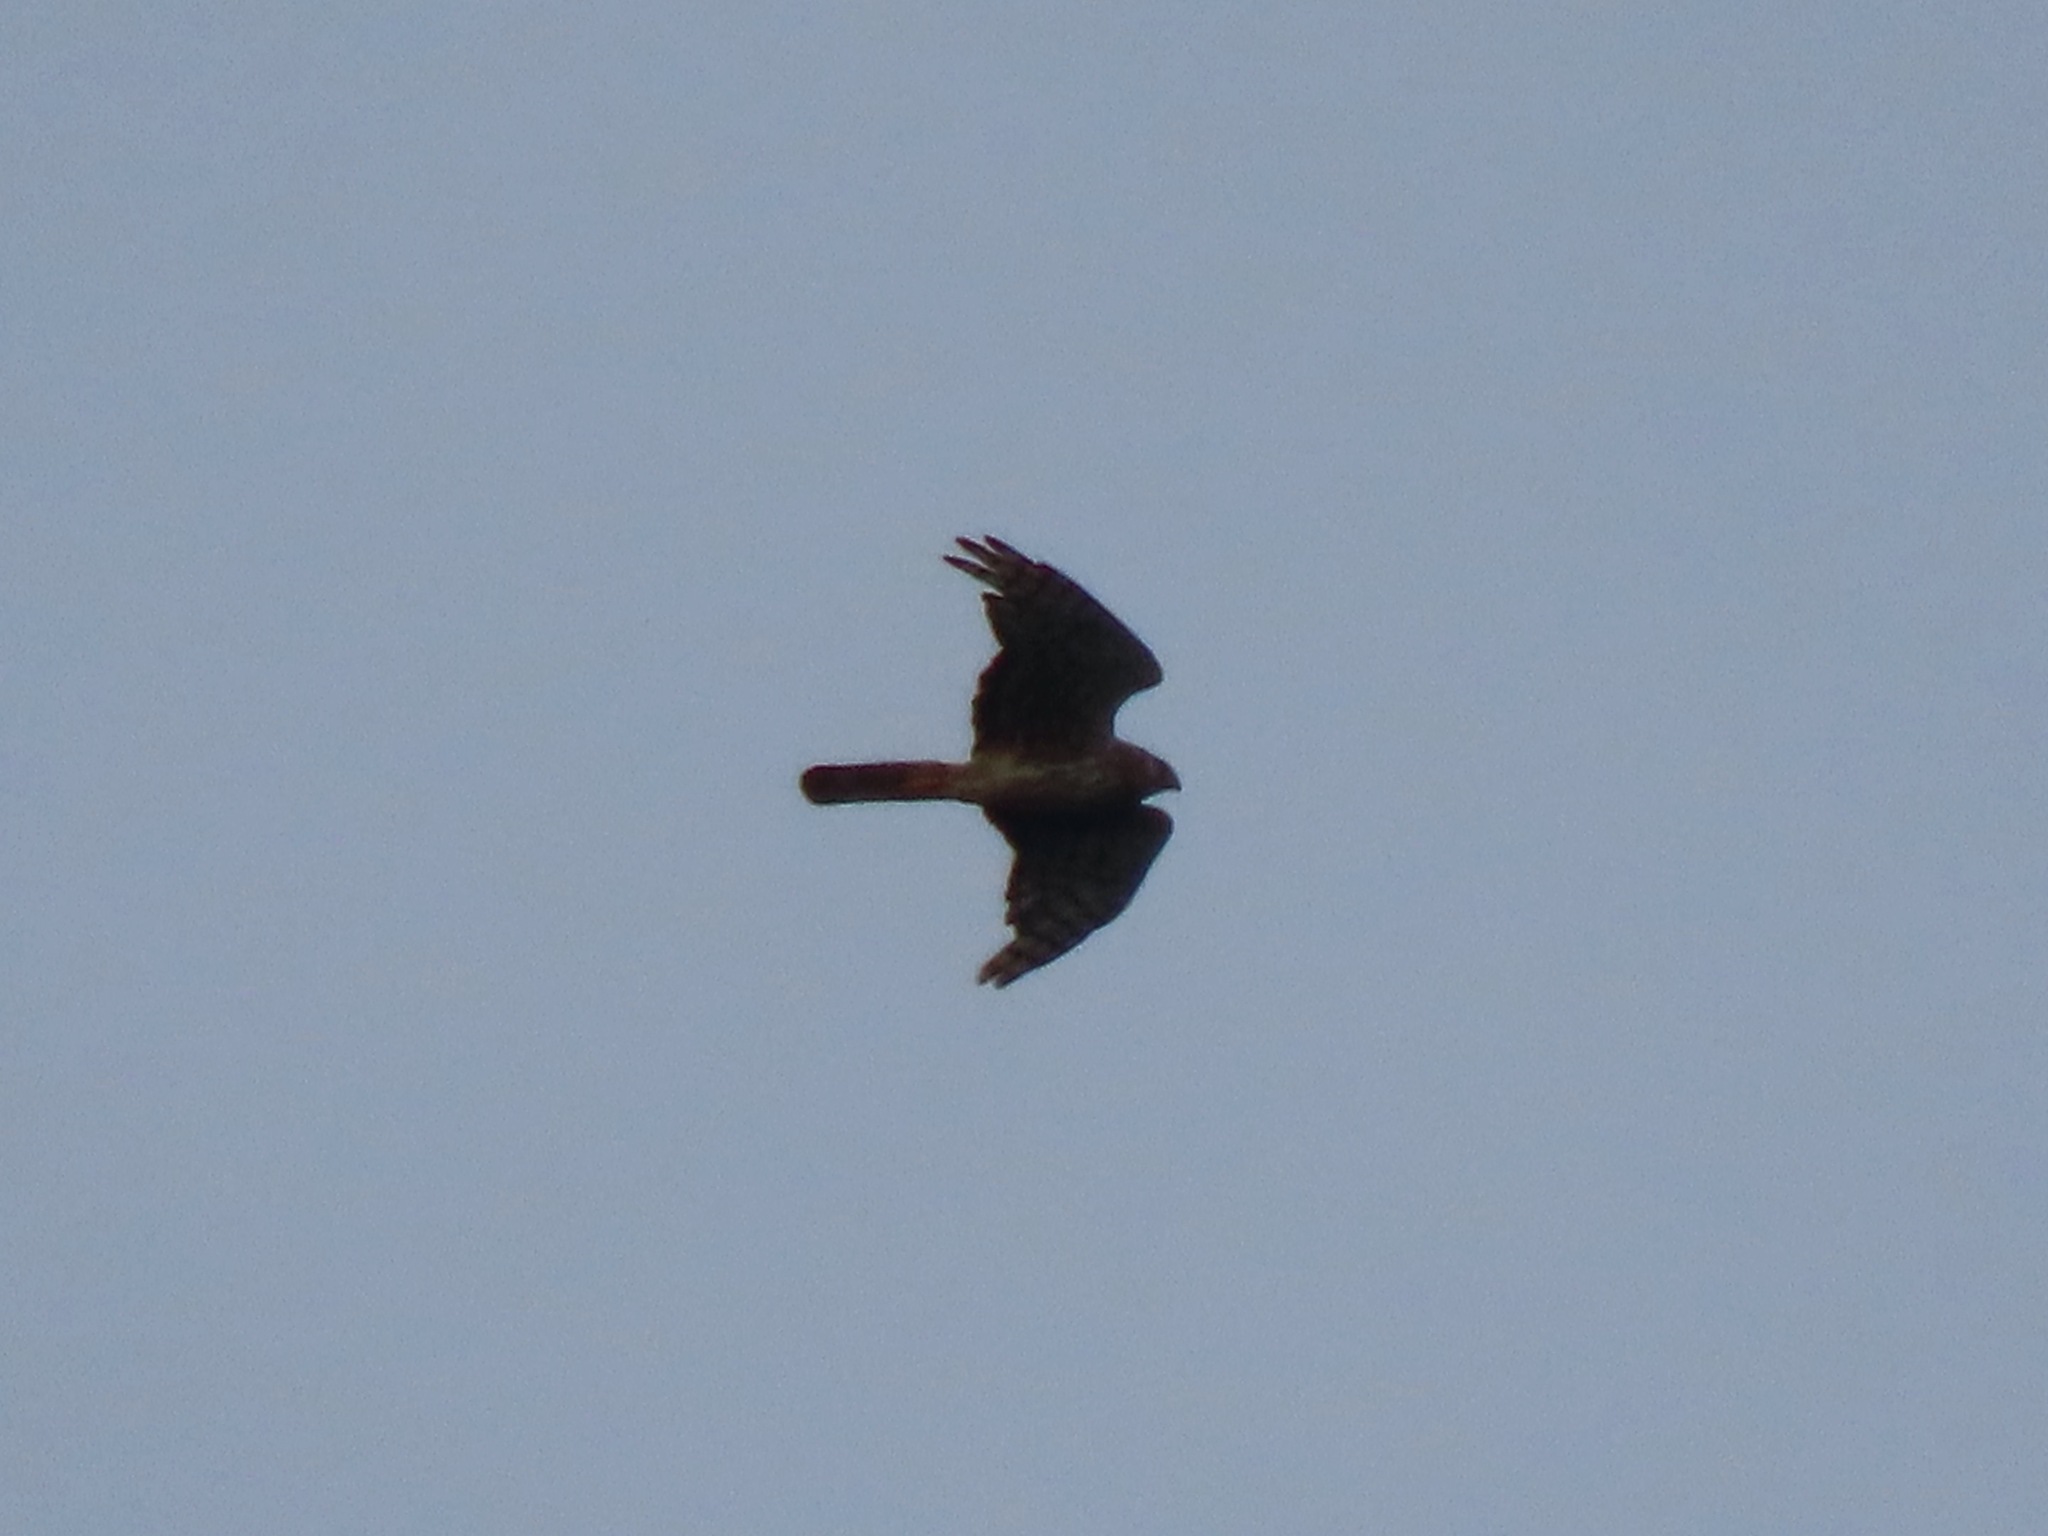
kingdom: Animalia
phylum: Chordata
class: Aves
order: Accipitriformes
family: Accipitridae
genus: Circus
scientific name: Circus cyaneus
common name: Hen harrier
